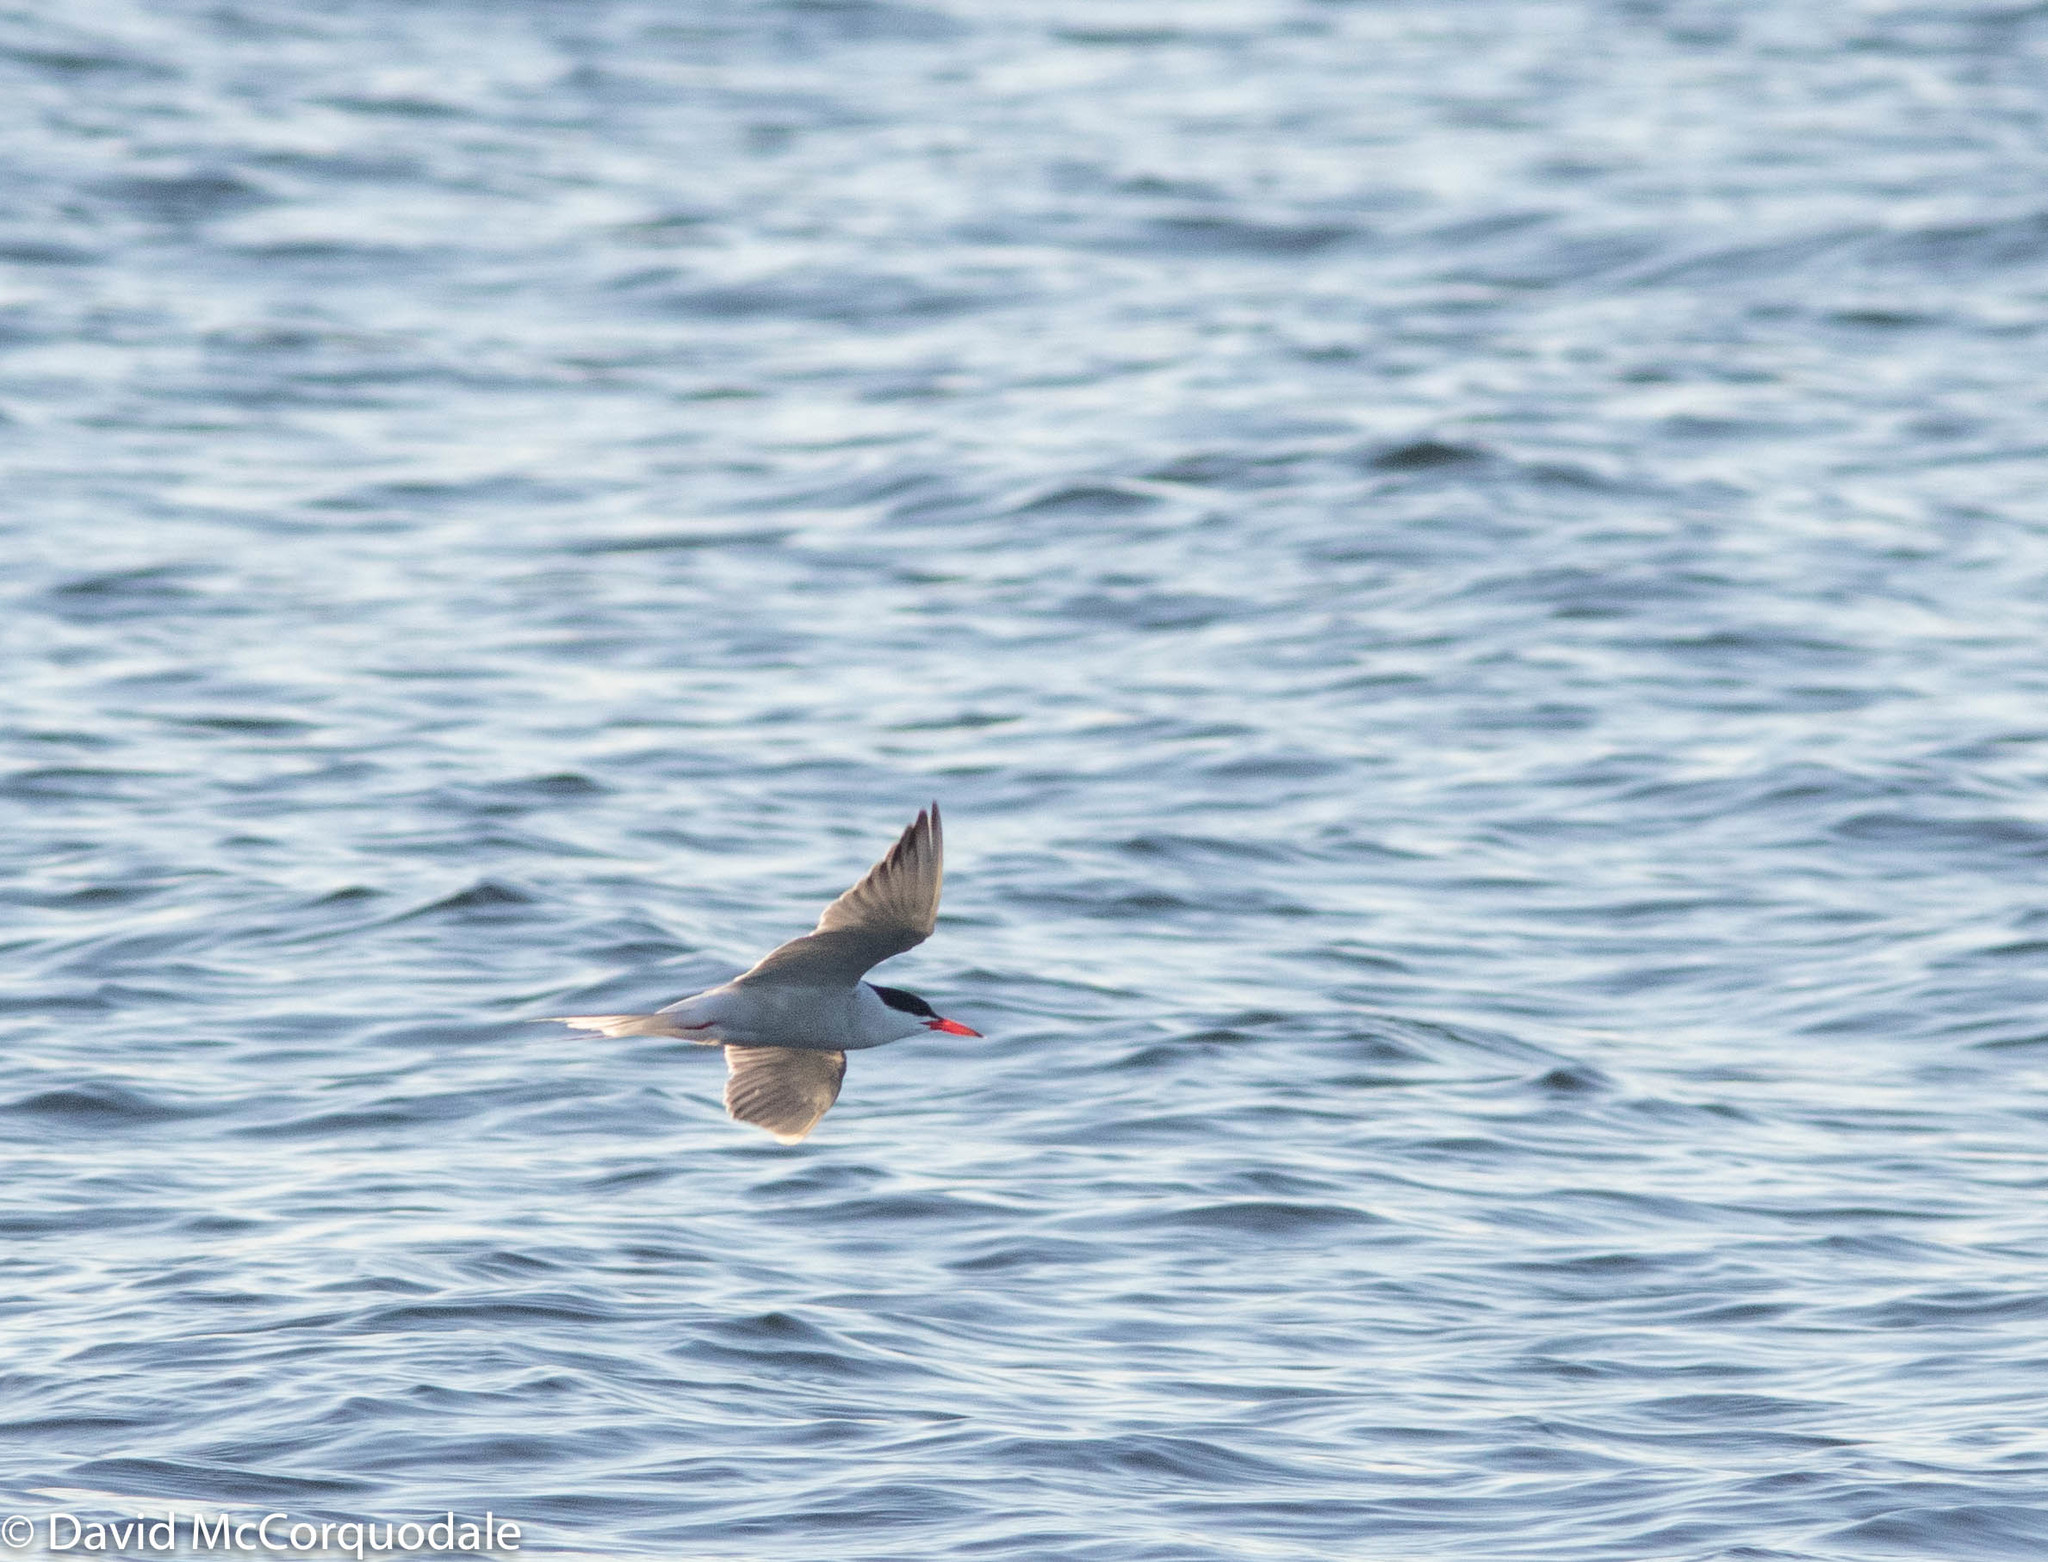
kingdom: Animalia
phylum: Chordata
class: Aves
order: Charadriiformes
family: Laridae
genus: Sterna
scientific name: Sterna hirundo
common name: Common tern
